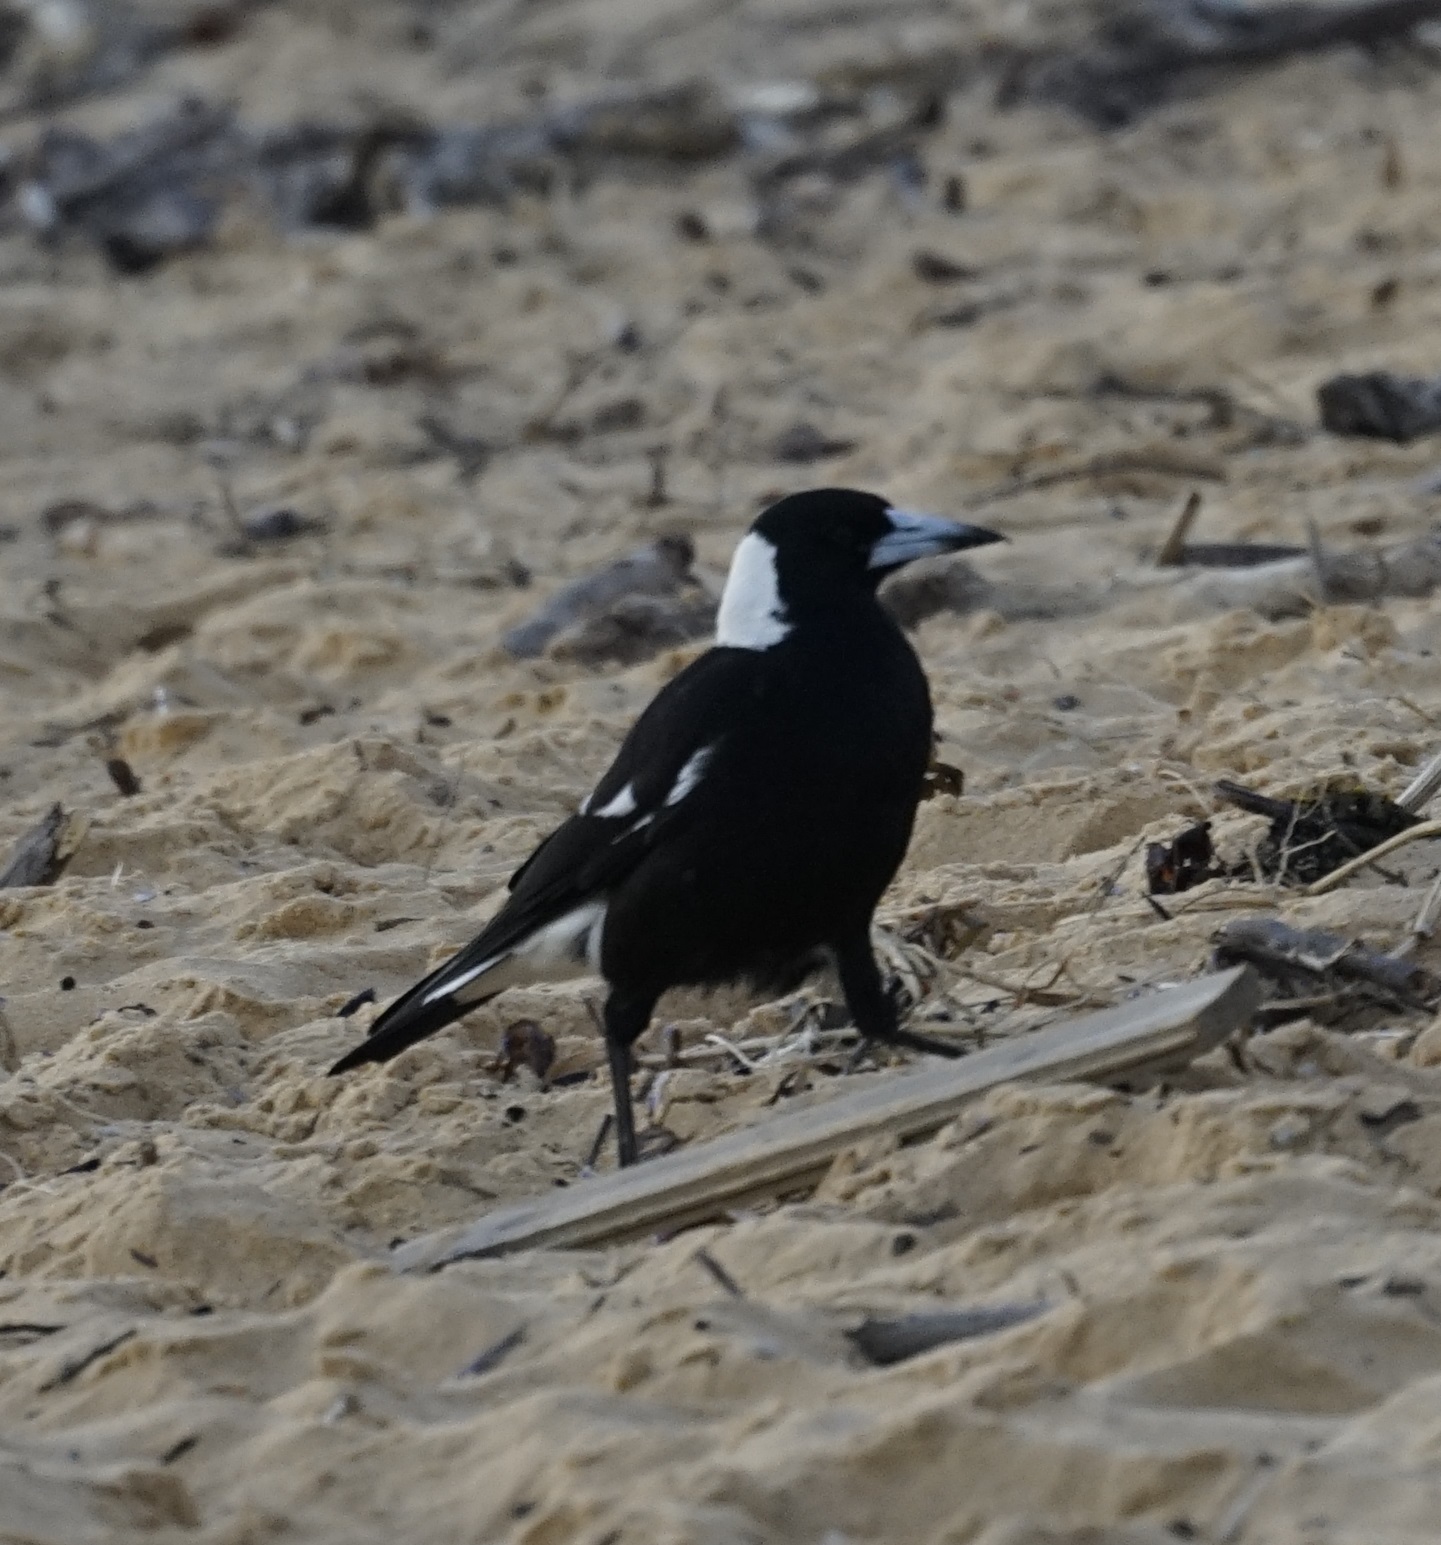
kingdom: Animalia
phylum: Chordata
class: Aves
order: Passeriformes
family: Cracticidae
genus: Gymnorhina
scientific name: Gymnorhina tibicen
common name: Australian magpie
